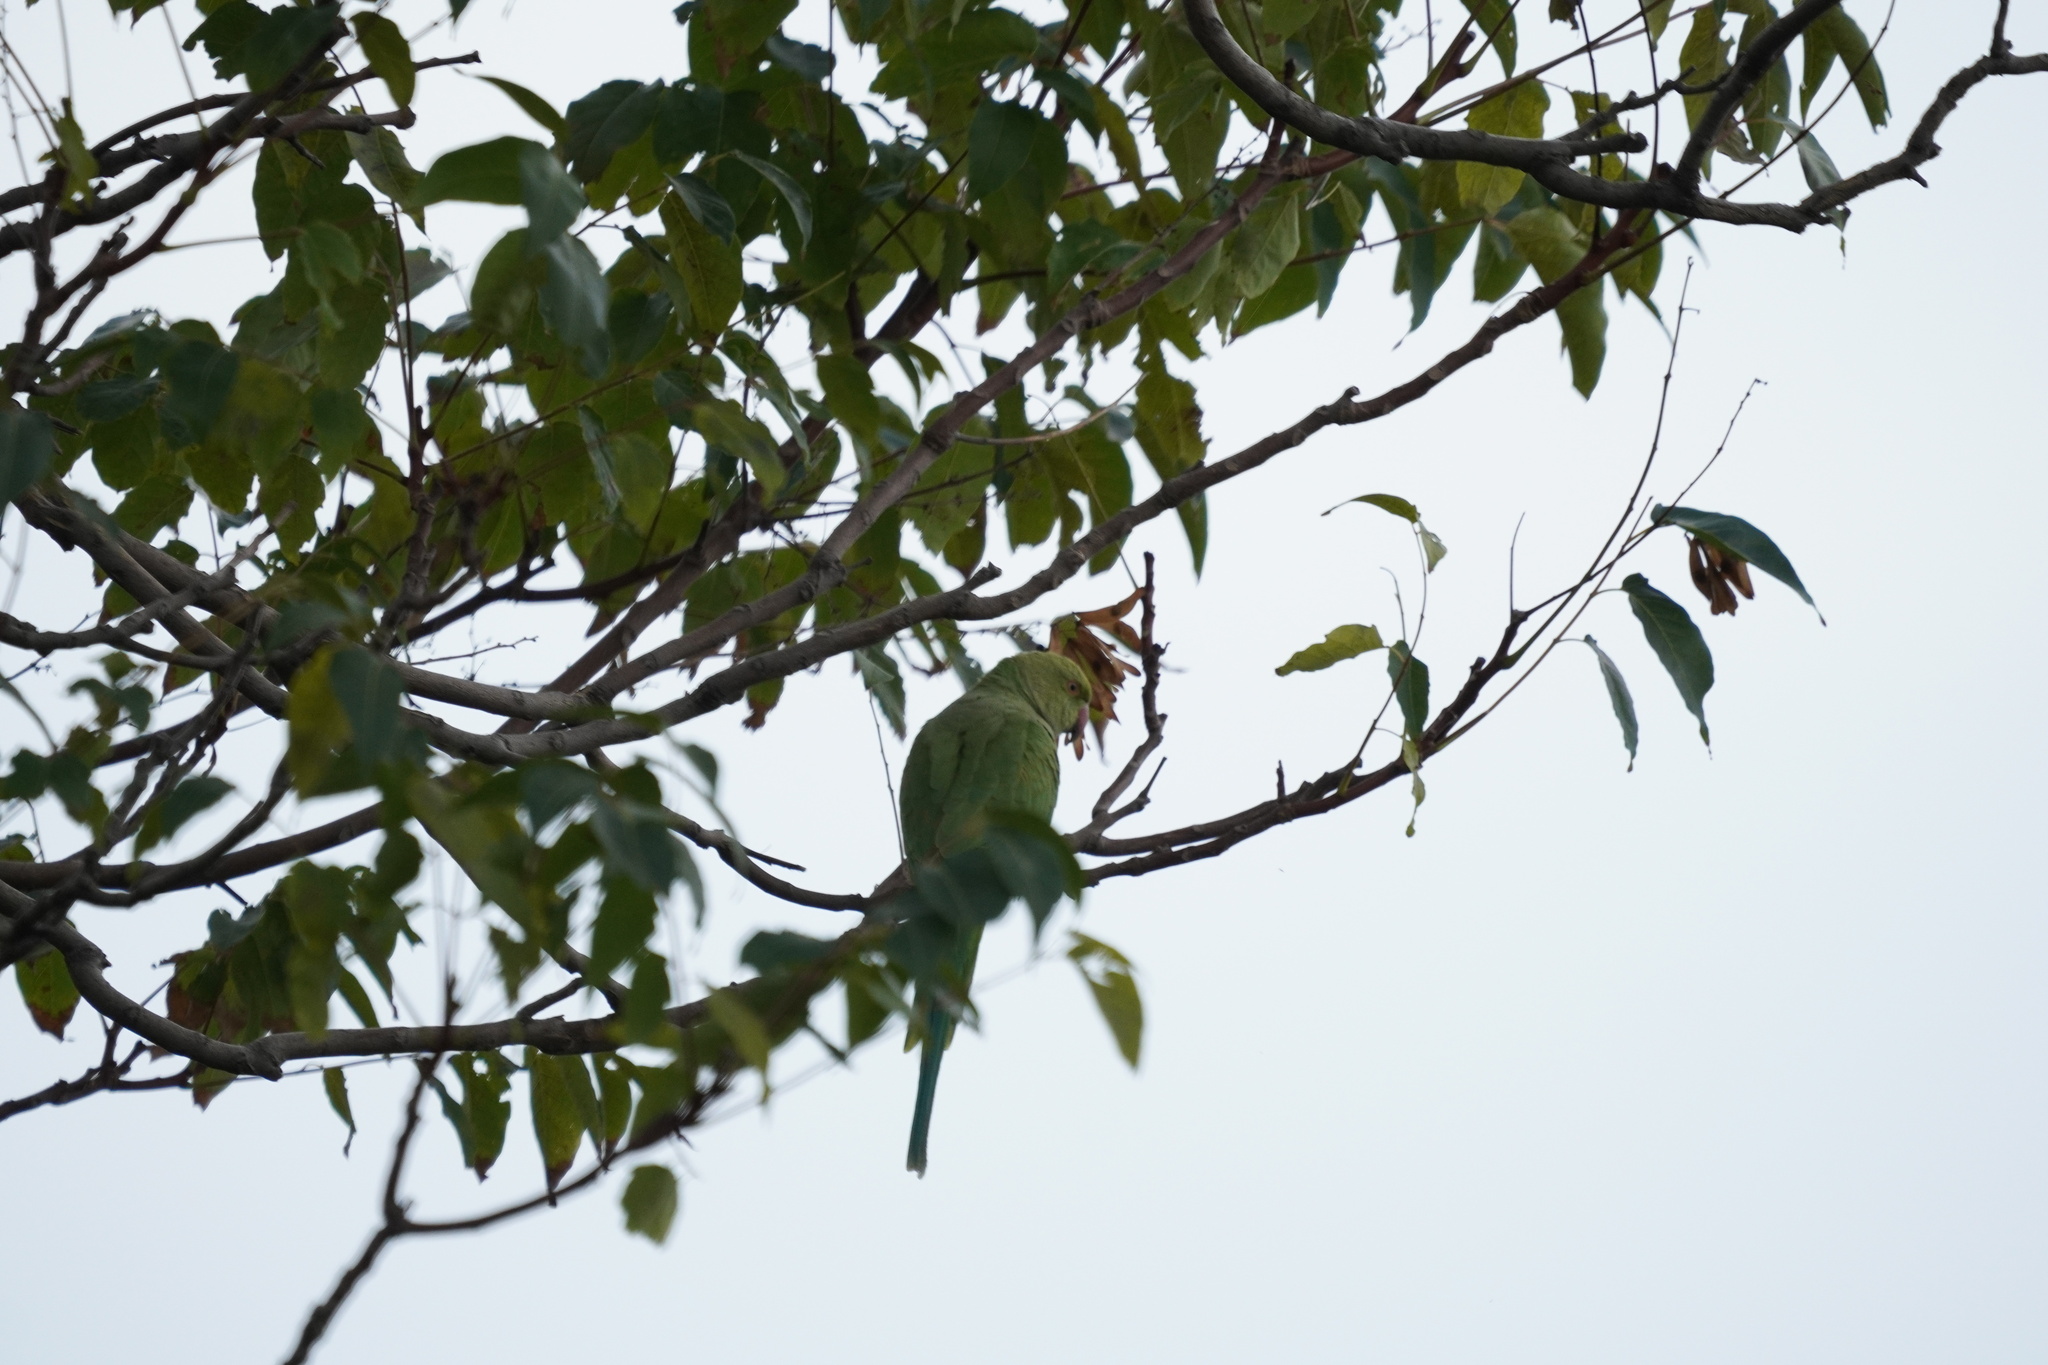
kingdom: Animalia
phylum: Chordata
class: Aves
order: Psittaciformes
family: Psittacidae
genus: Psittacula
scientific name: Psittacula krameri
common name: Rose-ringed parakeet
